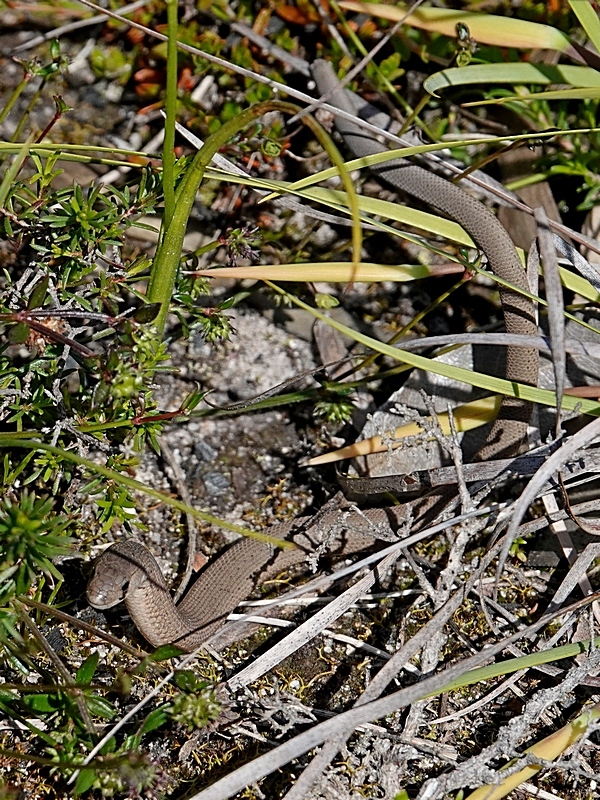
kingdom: Animalia
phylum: Chordata
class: Squamata
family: Pygopodidae
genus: Pygopus
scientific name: Pygopus lepidopodus
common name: Southern scaly-foot
